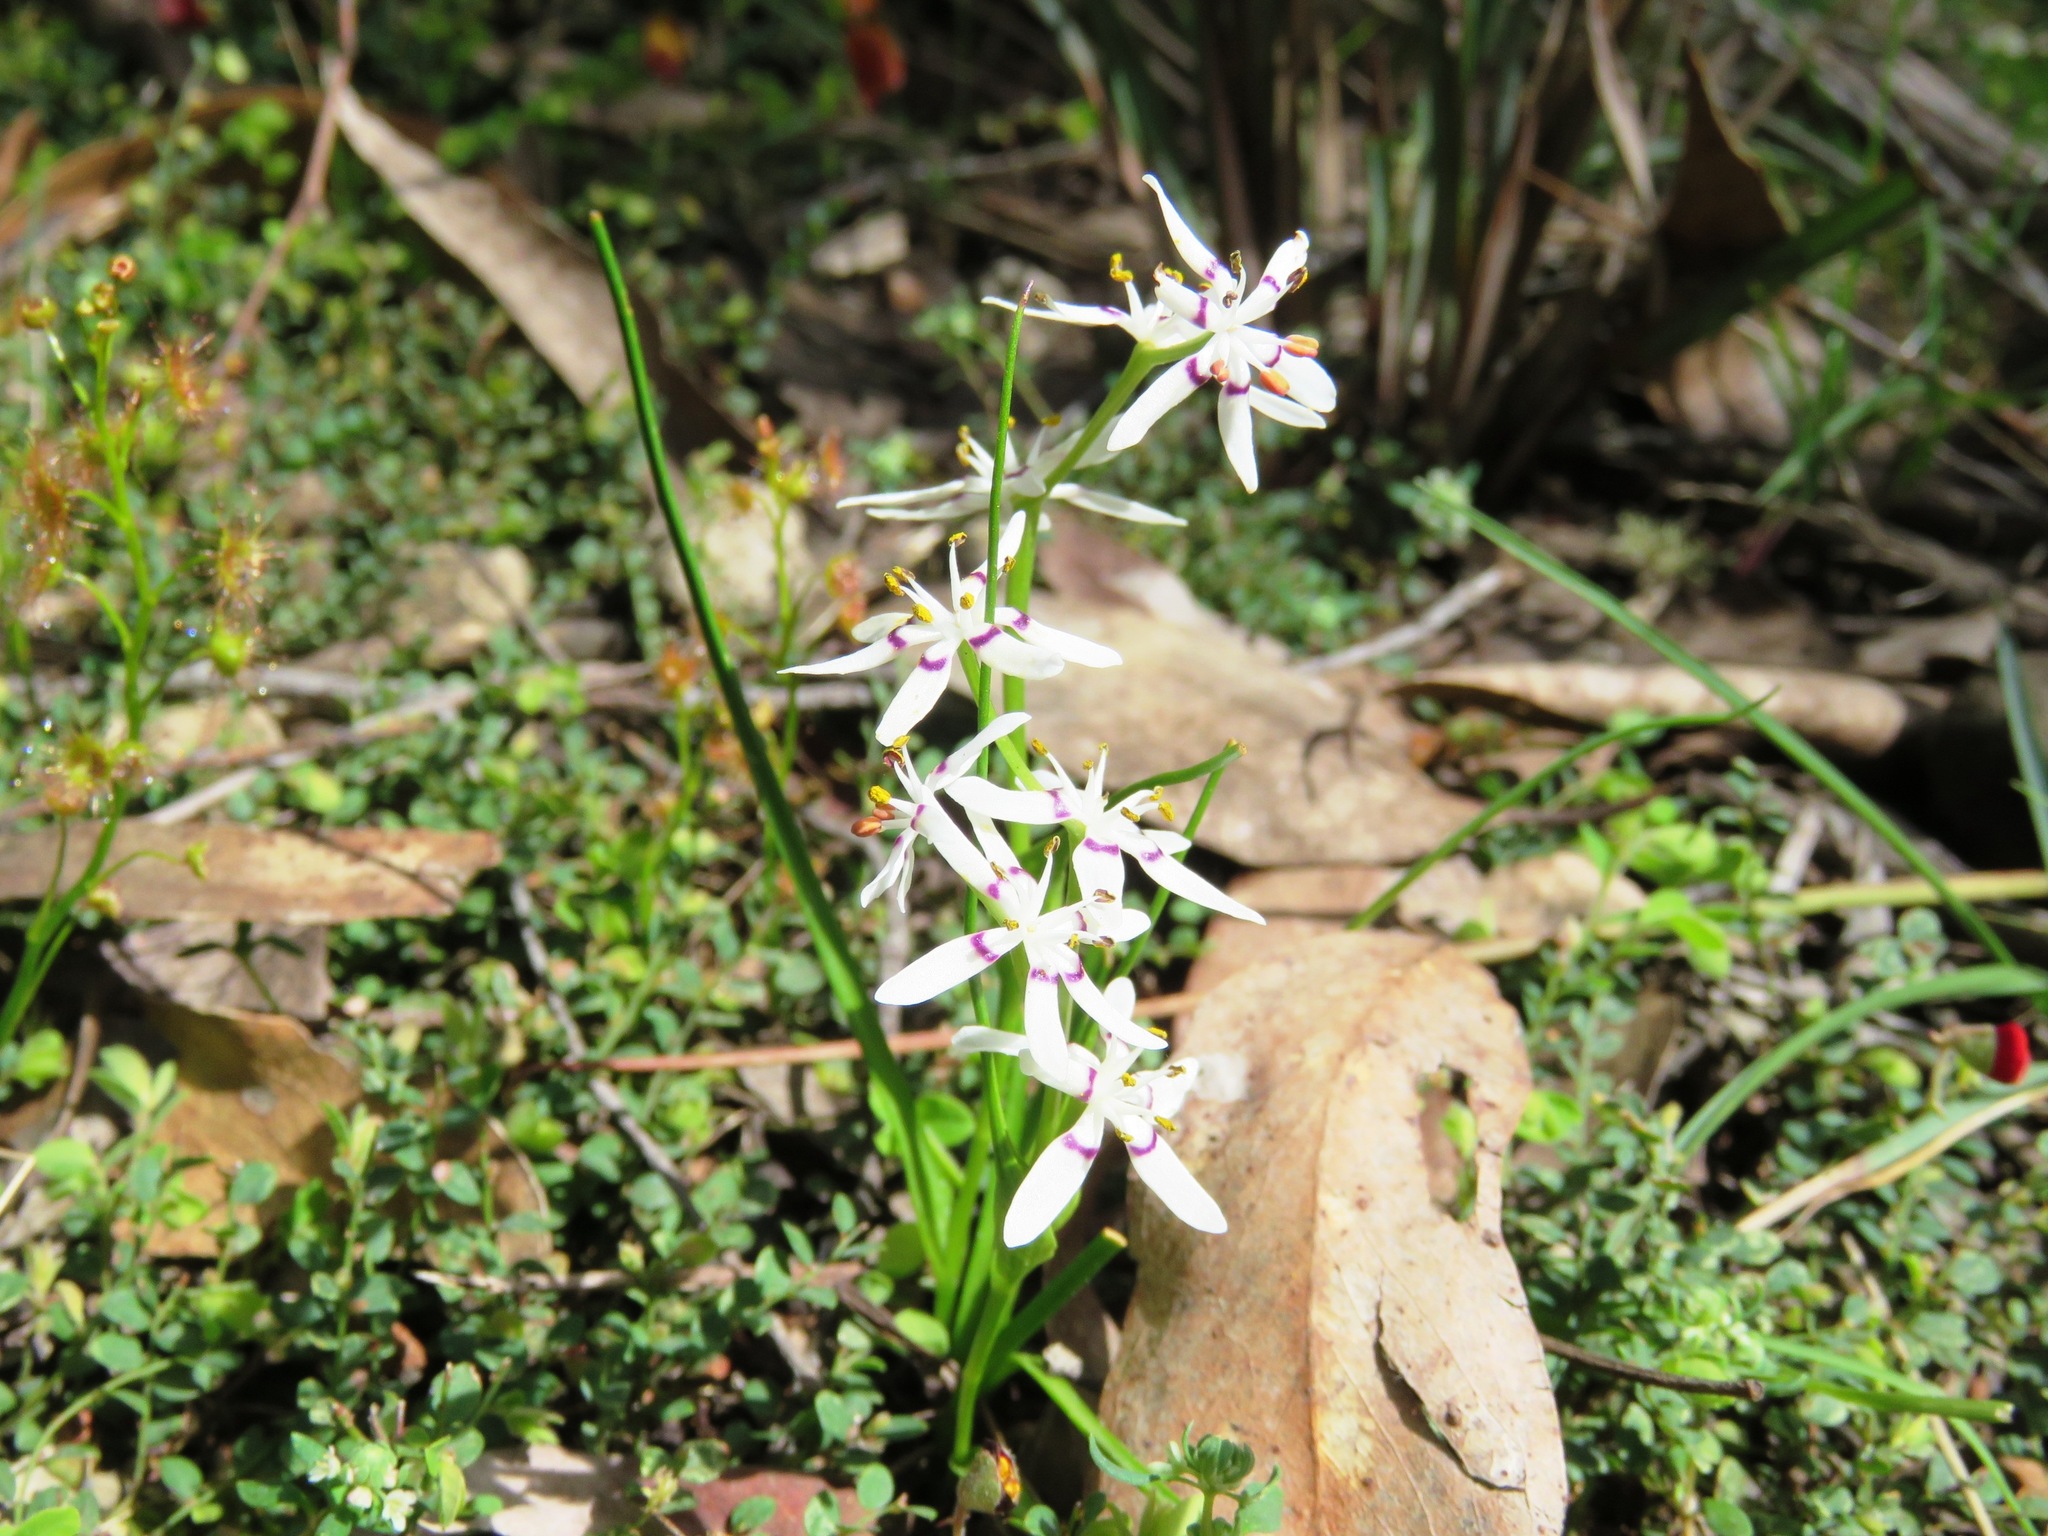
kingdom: Plantae
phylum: Tracheophyta
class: Liliopsida
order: Liliales
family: Colchicaceae
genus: Wurmbea
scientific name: Wurmbea dioica
